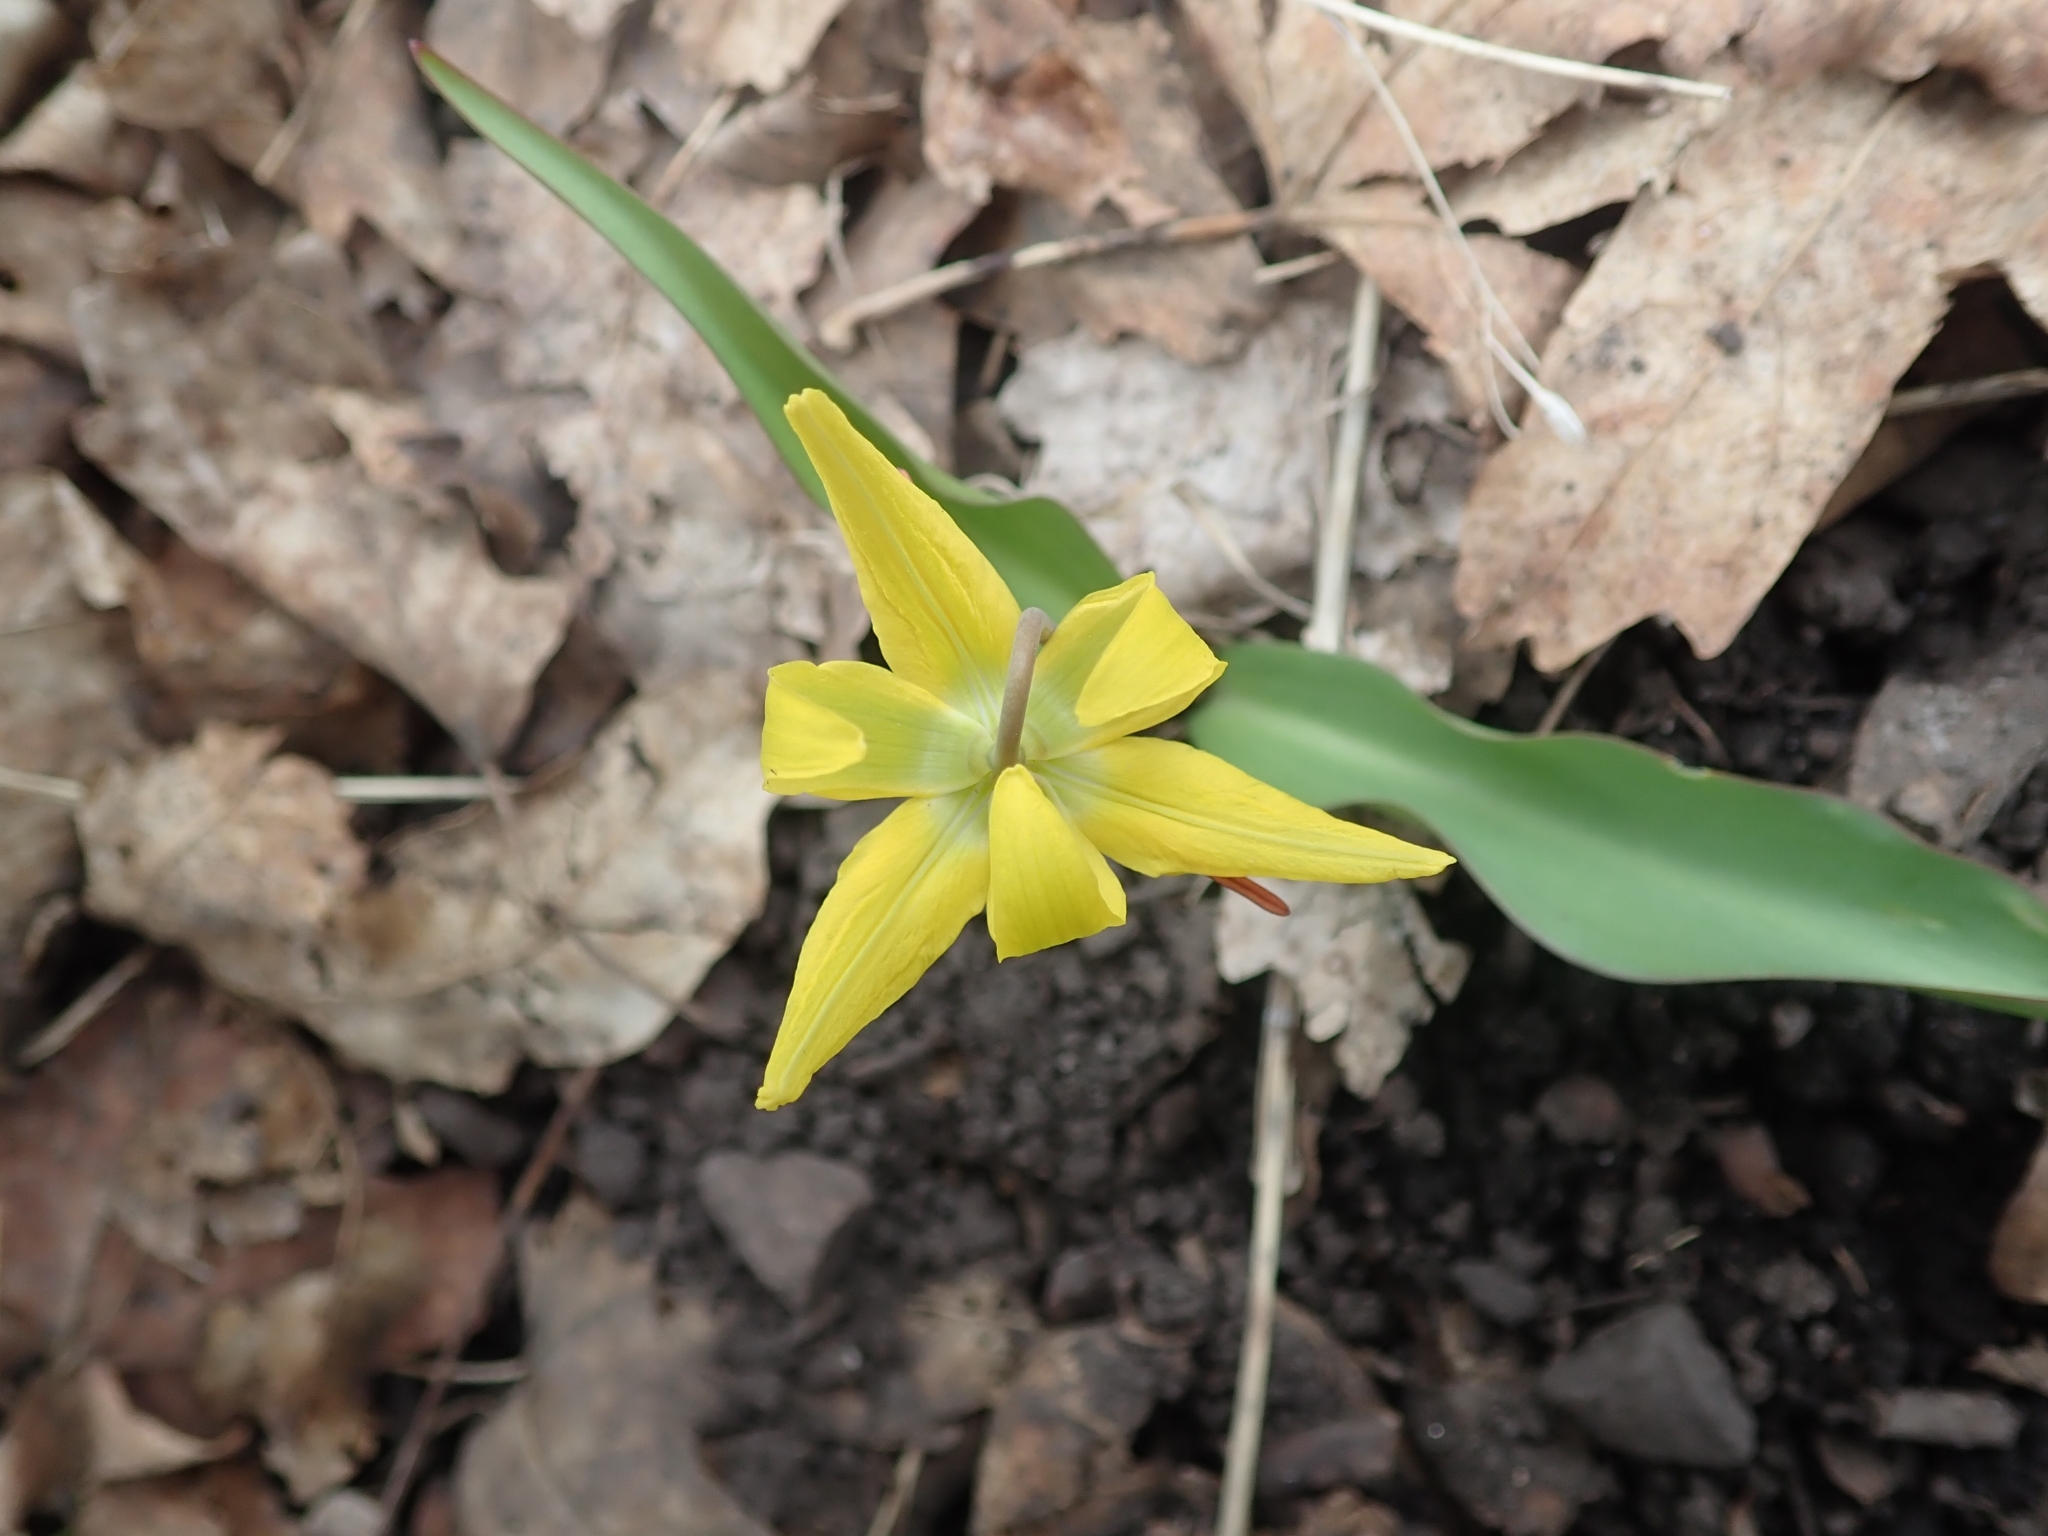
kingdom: Plantae
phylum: Tracheophyta
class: Liliopsida
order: Liliales
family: Liliaceae
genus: Erythronium
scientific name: Erythronium grandiflorum
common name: Avalanche-lily
